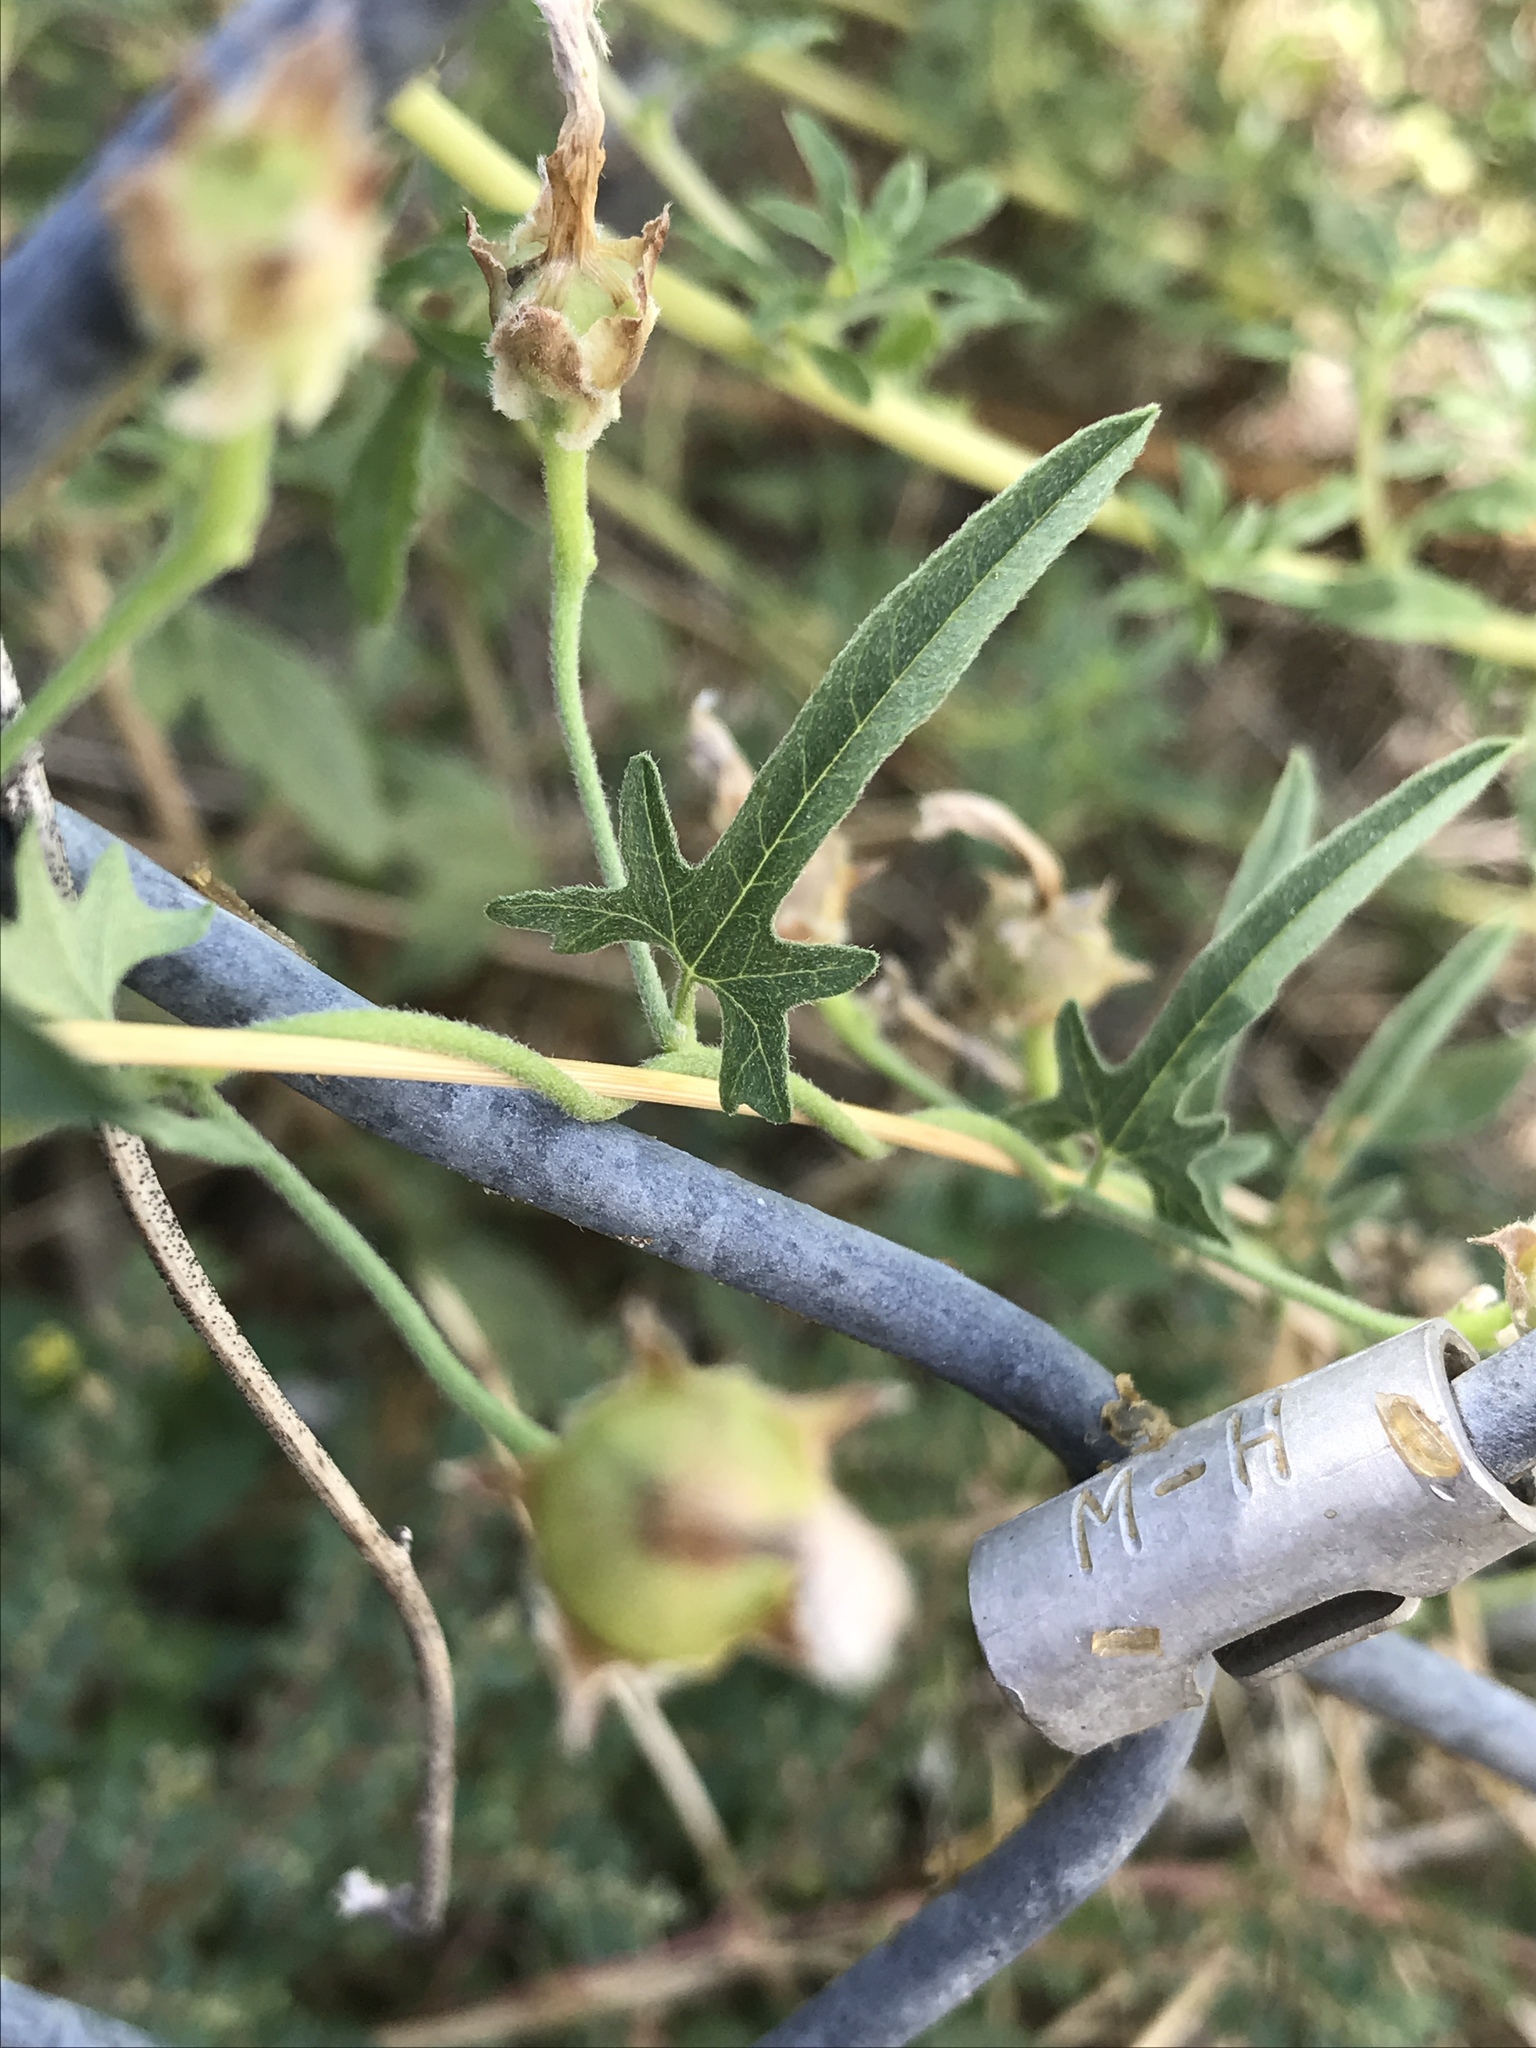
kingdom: Plantae
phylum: Tracheophyta
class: Magnoliopsida
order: Solanales
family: Convolvulaceae
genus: Convolvulus
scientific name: Convolvulus equitans
